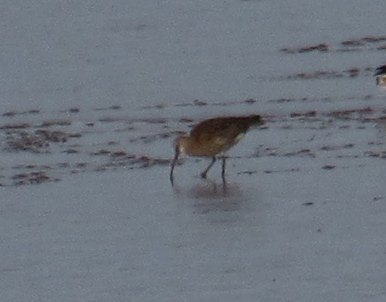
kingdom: Animalia
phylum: Chordata
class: Aves
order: Charadriiformes
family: Scolopacidae
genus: Numenius
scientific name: Numenius arquata
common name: Eurasian curlew
